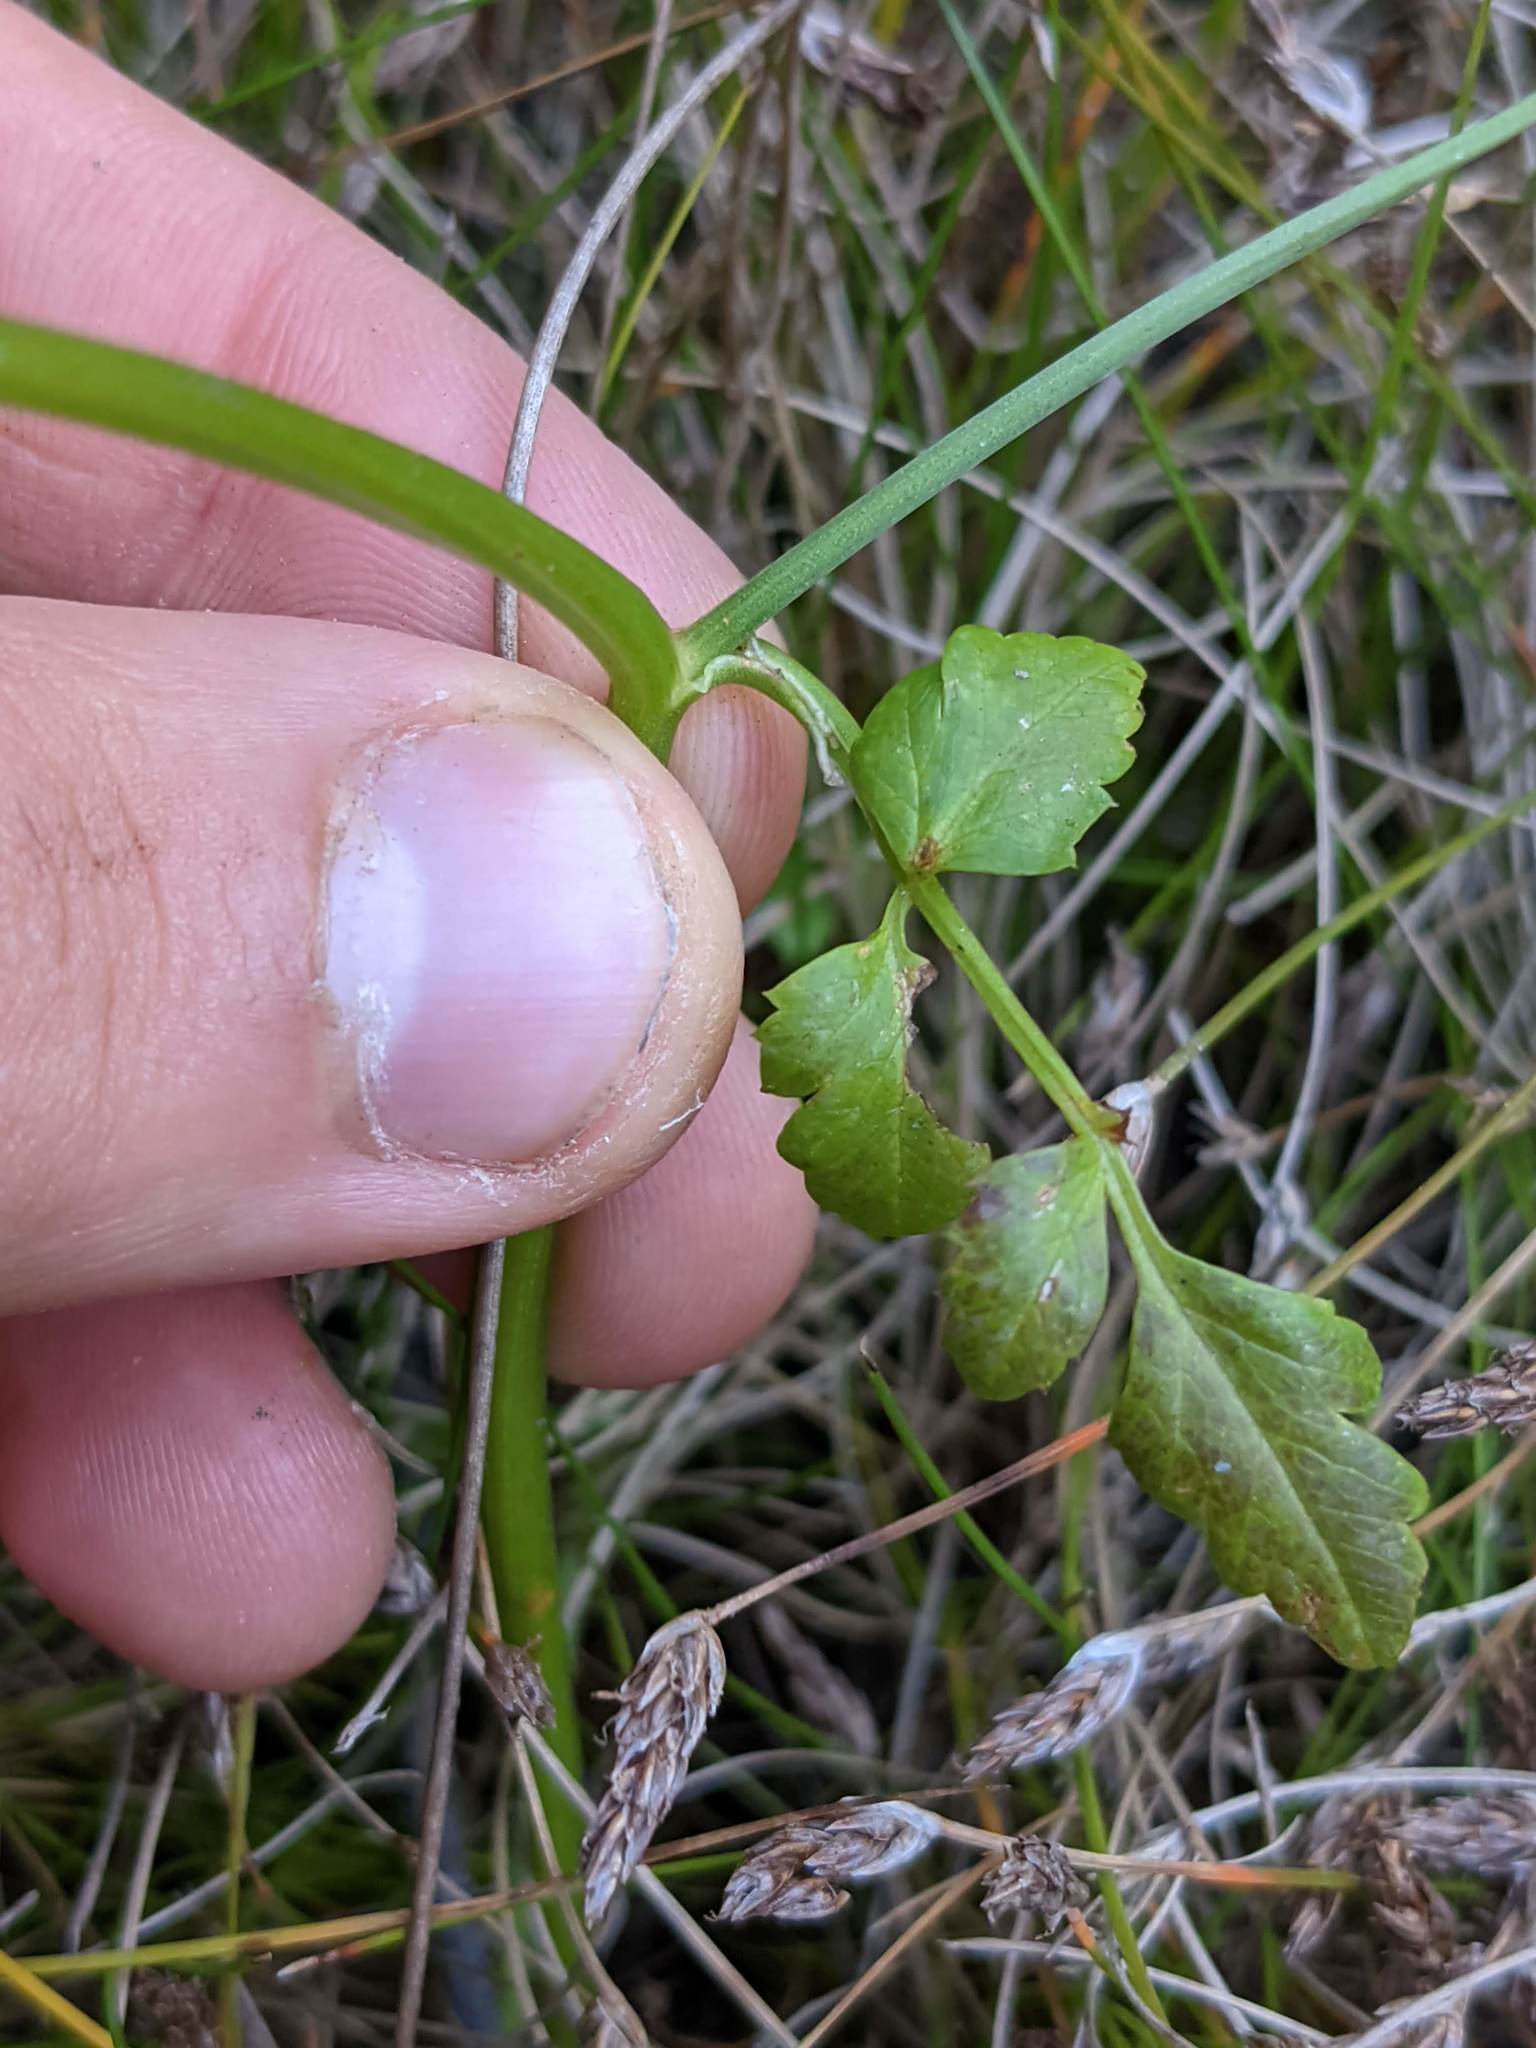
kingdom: Plantae
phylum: Tracheophyta
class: Magnoliopsida
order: Apiales
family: Apiaceae
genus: Oenanthe
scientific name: Oenanthe sarmentosa
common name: American water-parsley
